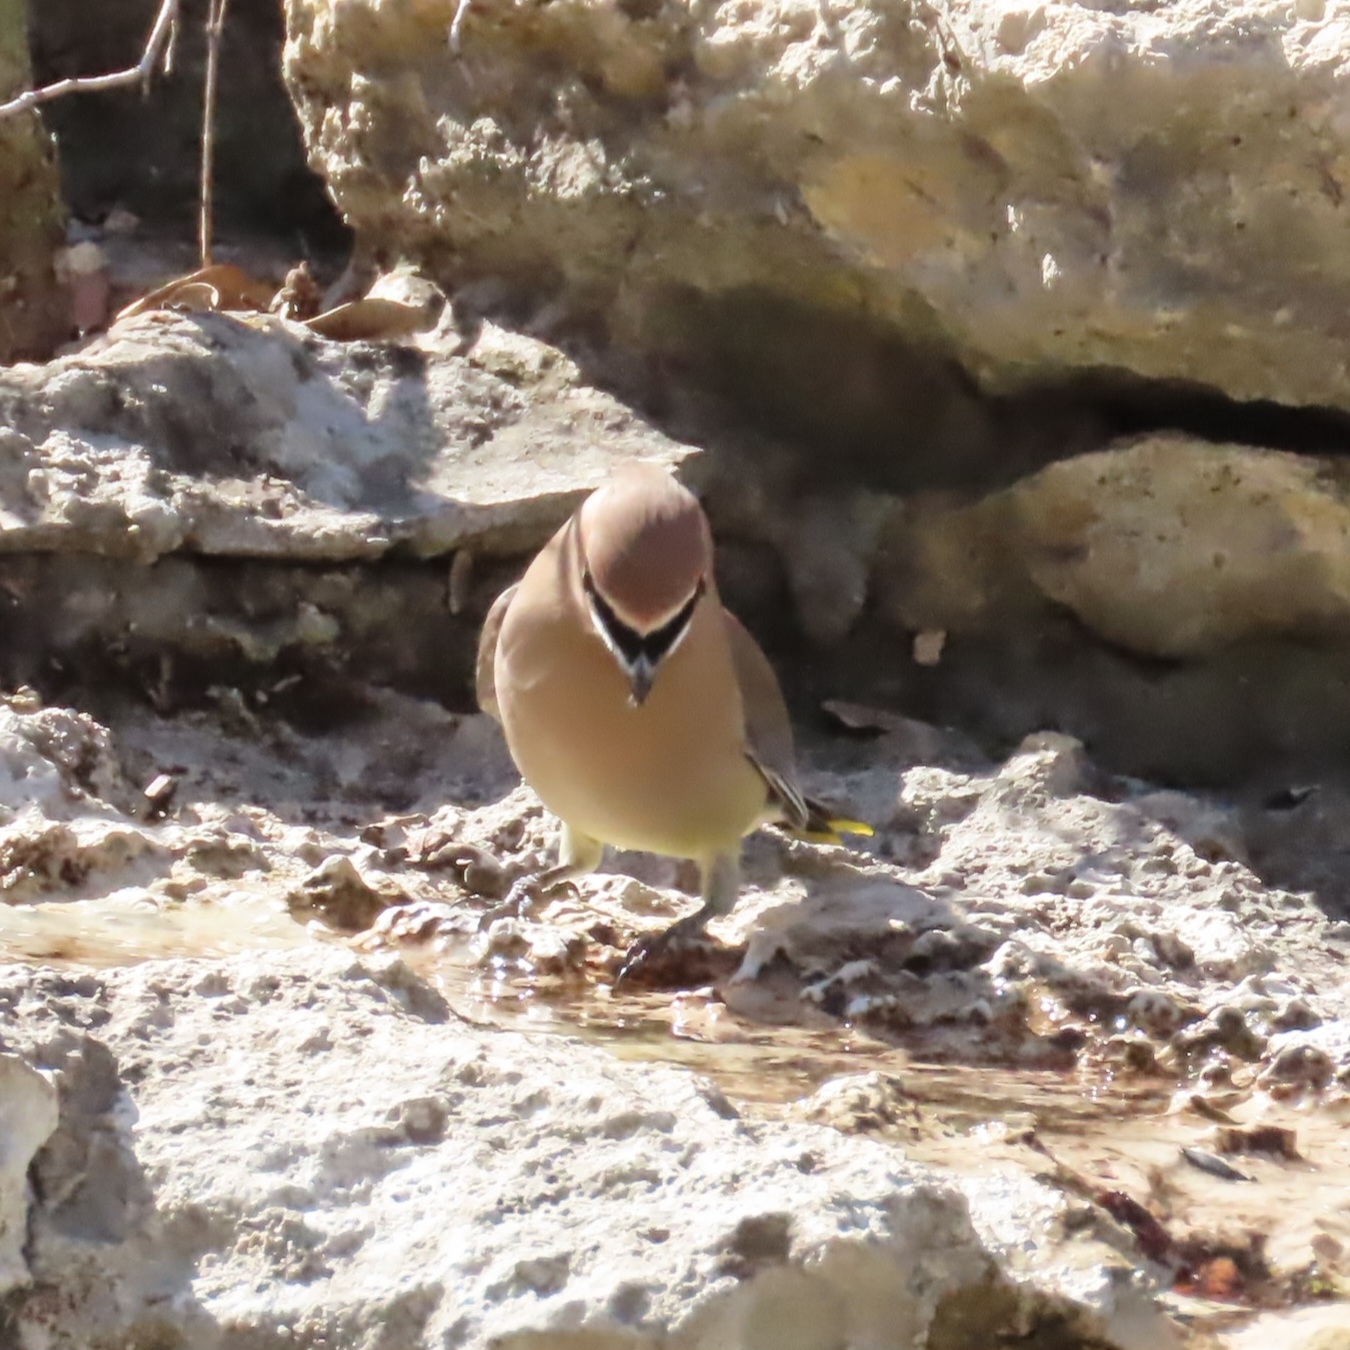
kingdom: Animalia
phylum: Chordata
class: Aves
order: Passeriformes
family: Bombycillidae
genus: Bombycilla
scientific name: Bombycilla cedrorum
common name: Cedar waxwing
